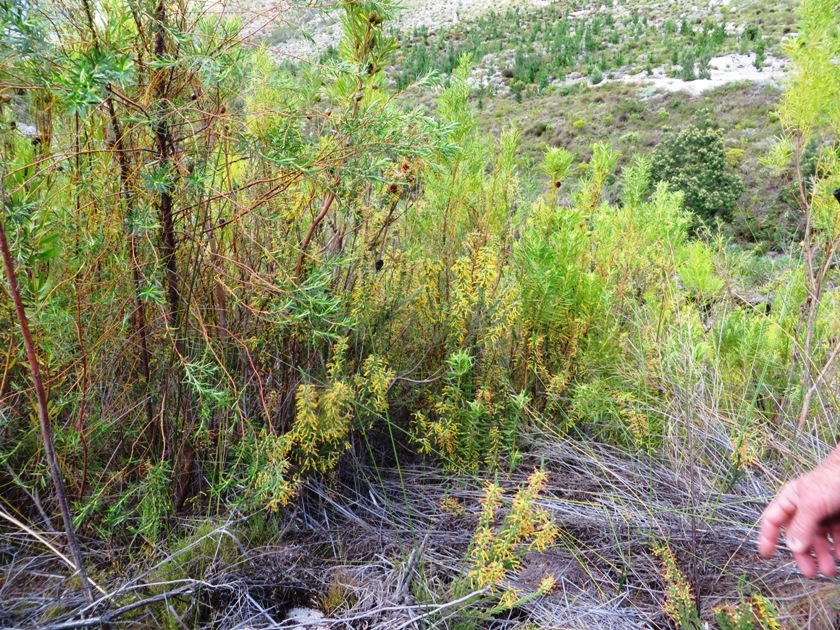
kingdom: Plantae
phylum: Tracheophyta
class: Magnoliopsida
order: Ericales
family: Ericaceae
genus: Erica
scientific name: Erica stagnalis
